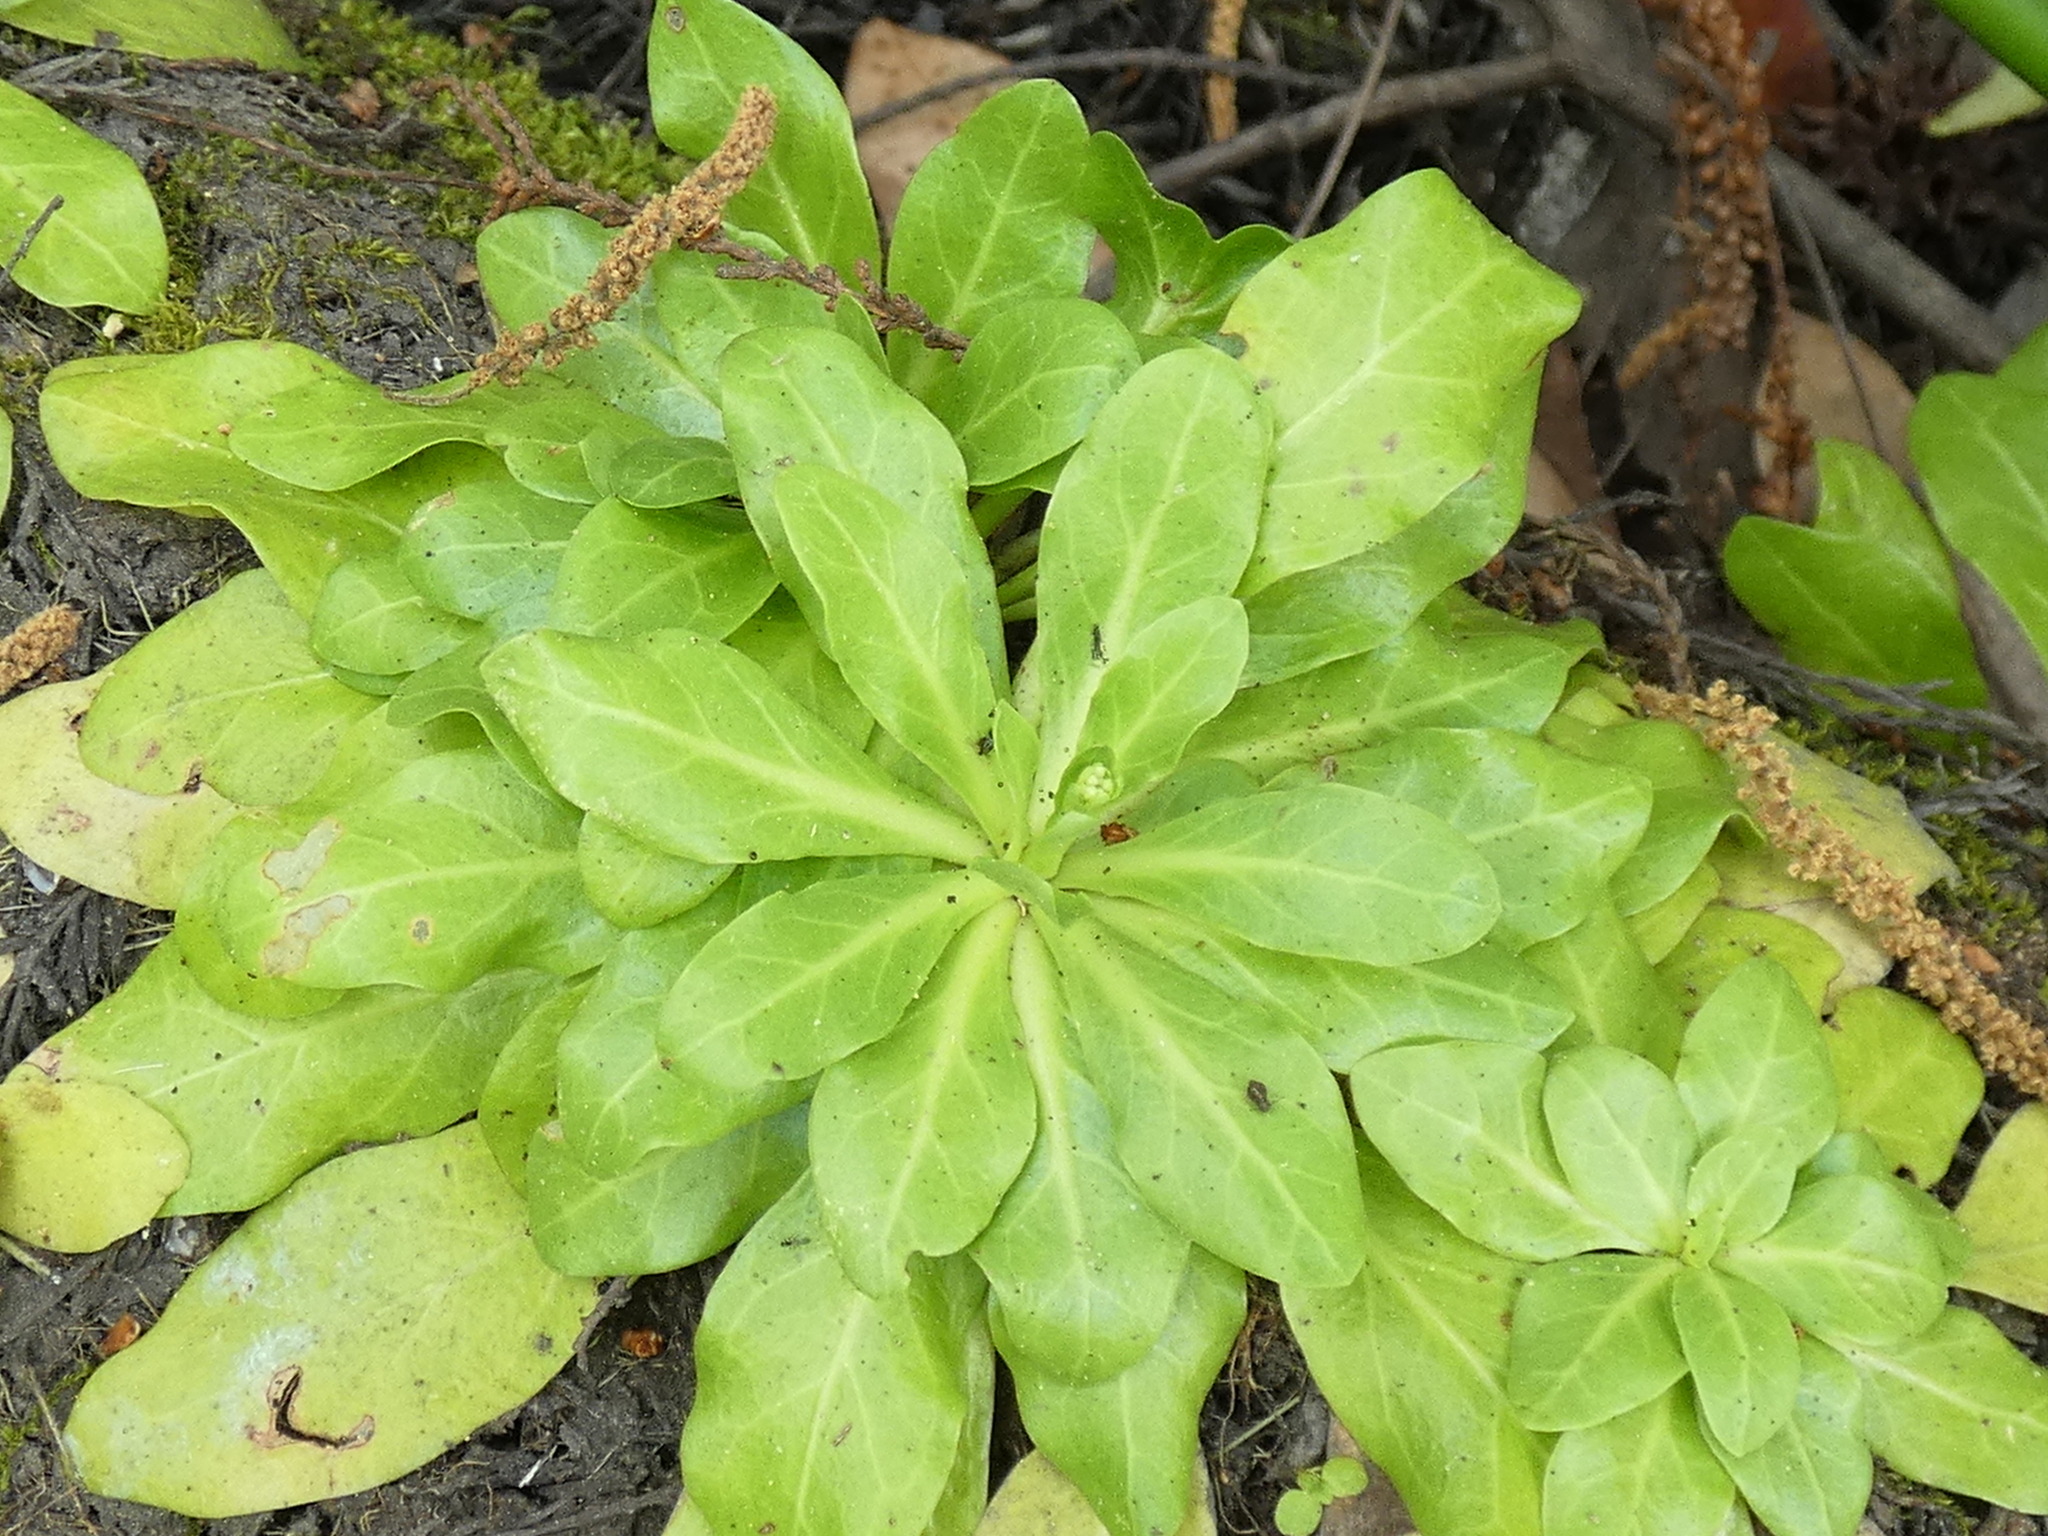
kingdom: Plantae
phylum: Tracheophyta
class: Magnoliopsida
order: Ericales
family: Primulaceae
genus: Samolus
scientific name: Samolus parviflorus
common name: False water pimpernel
